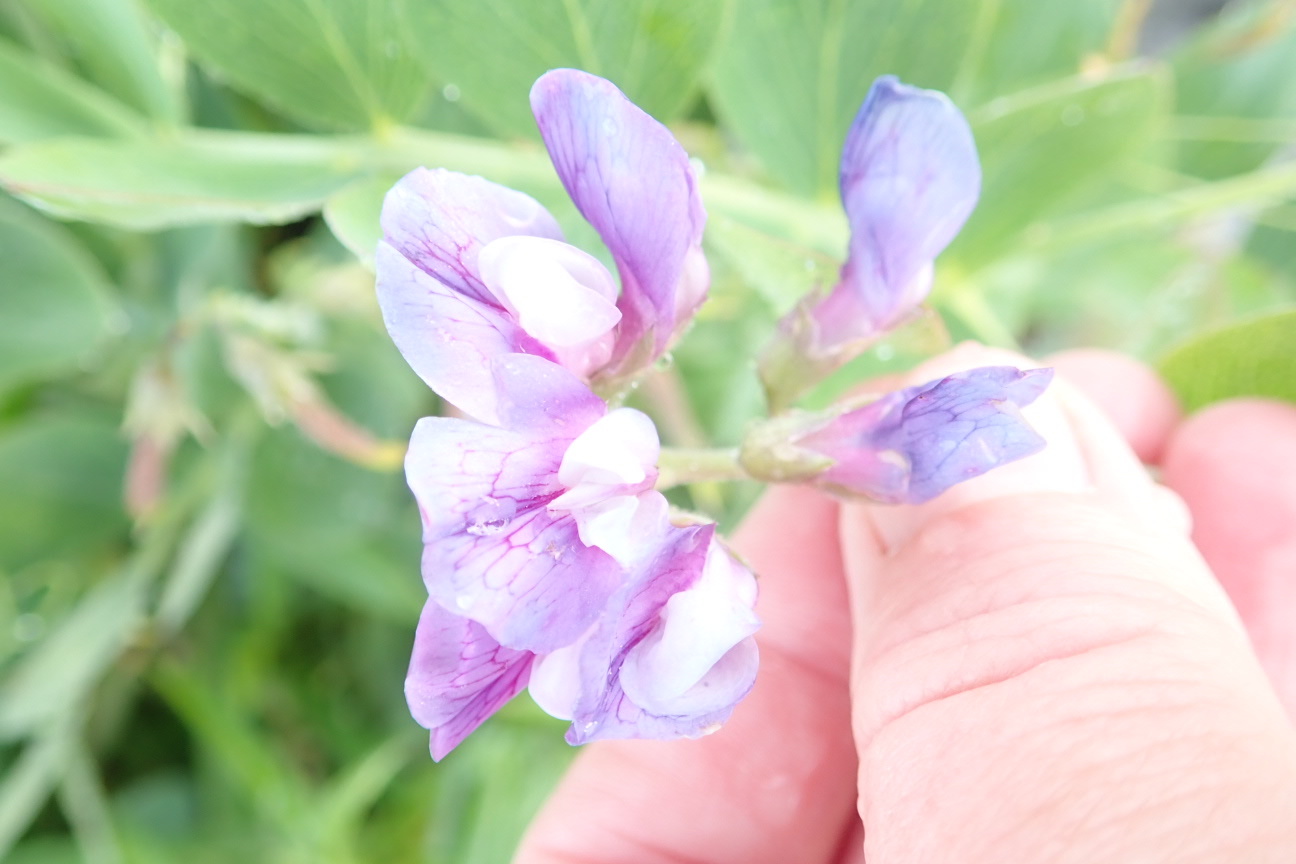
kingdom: Plantae
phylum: Tracheophyta
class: Magnoliopsida
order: Fabales
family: Fabaceae
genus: Lathyrus
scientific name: Lathyrus japonicus
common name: Sea pea
